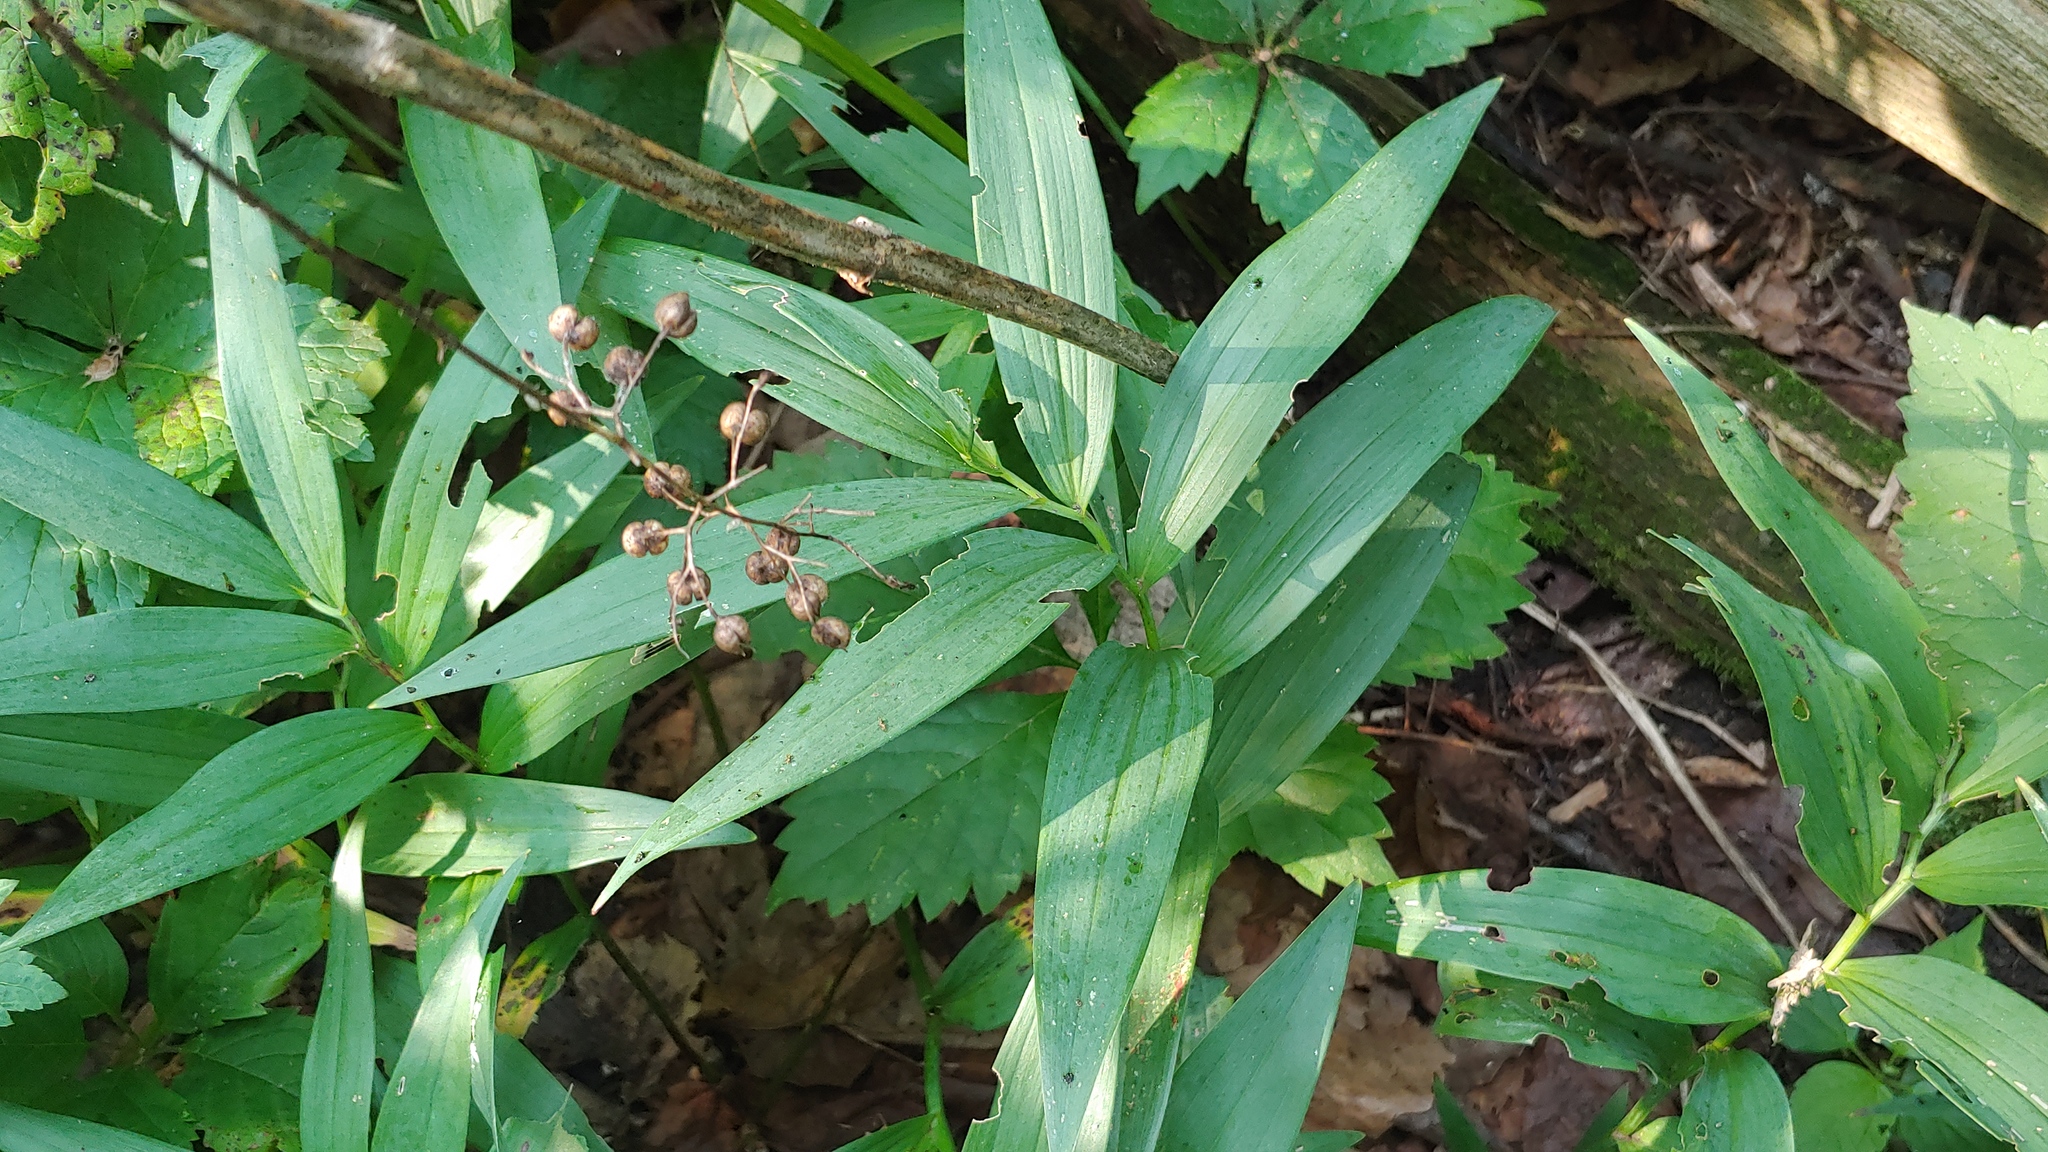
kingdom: Plantae
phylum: Tracheophyta
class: Liliopsida
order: Asparagales
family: Asparagaceae
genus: Maianthemum
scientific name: Maianthemum stellatum
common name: Little false solomon's seal
